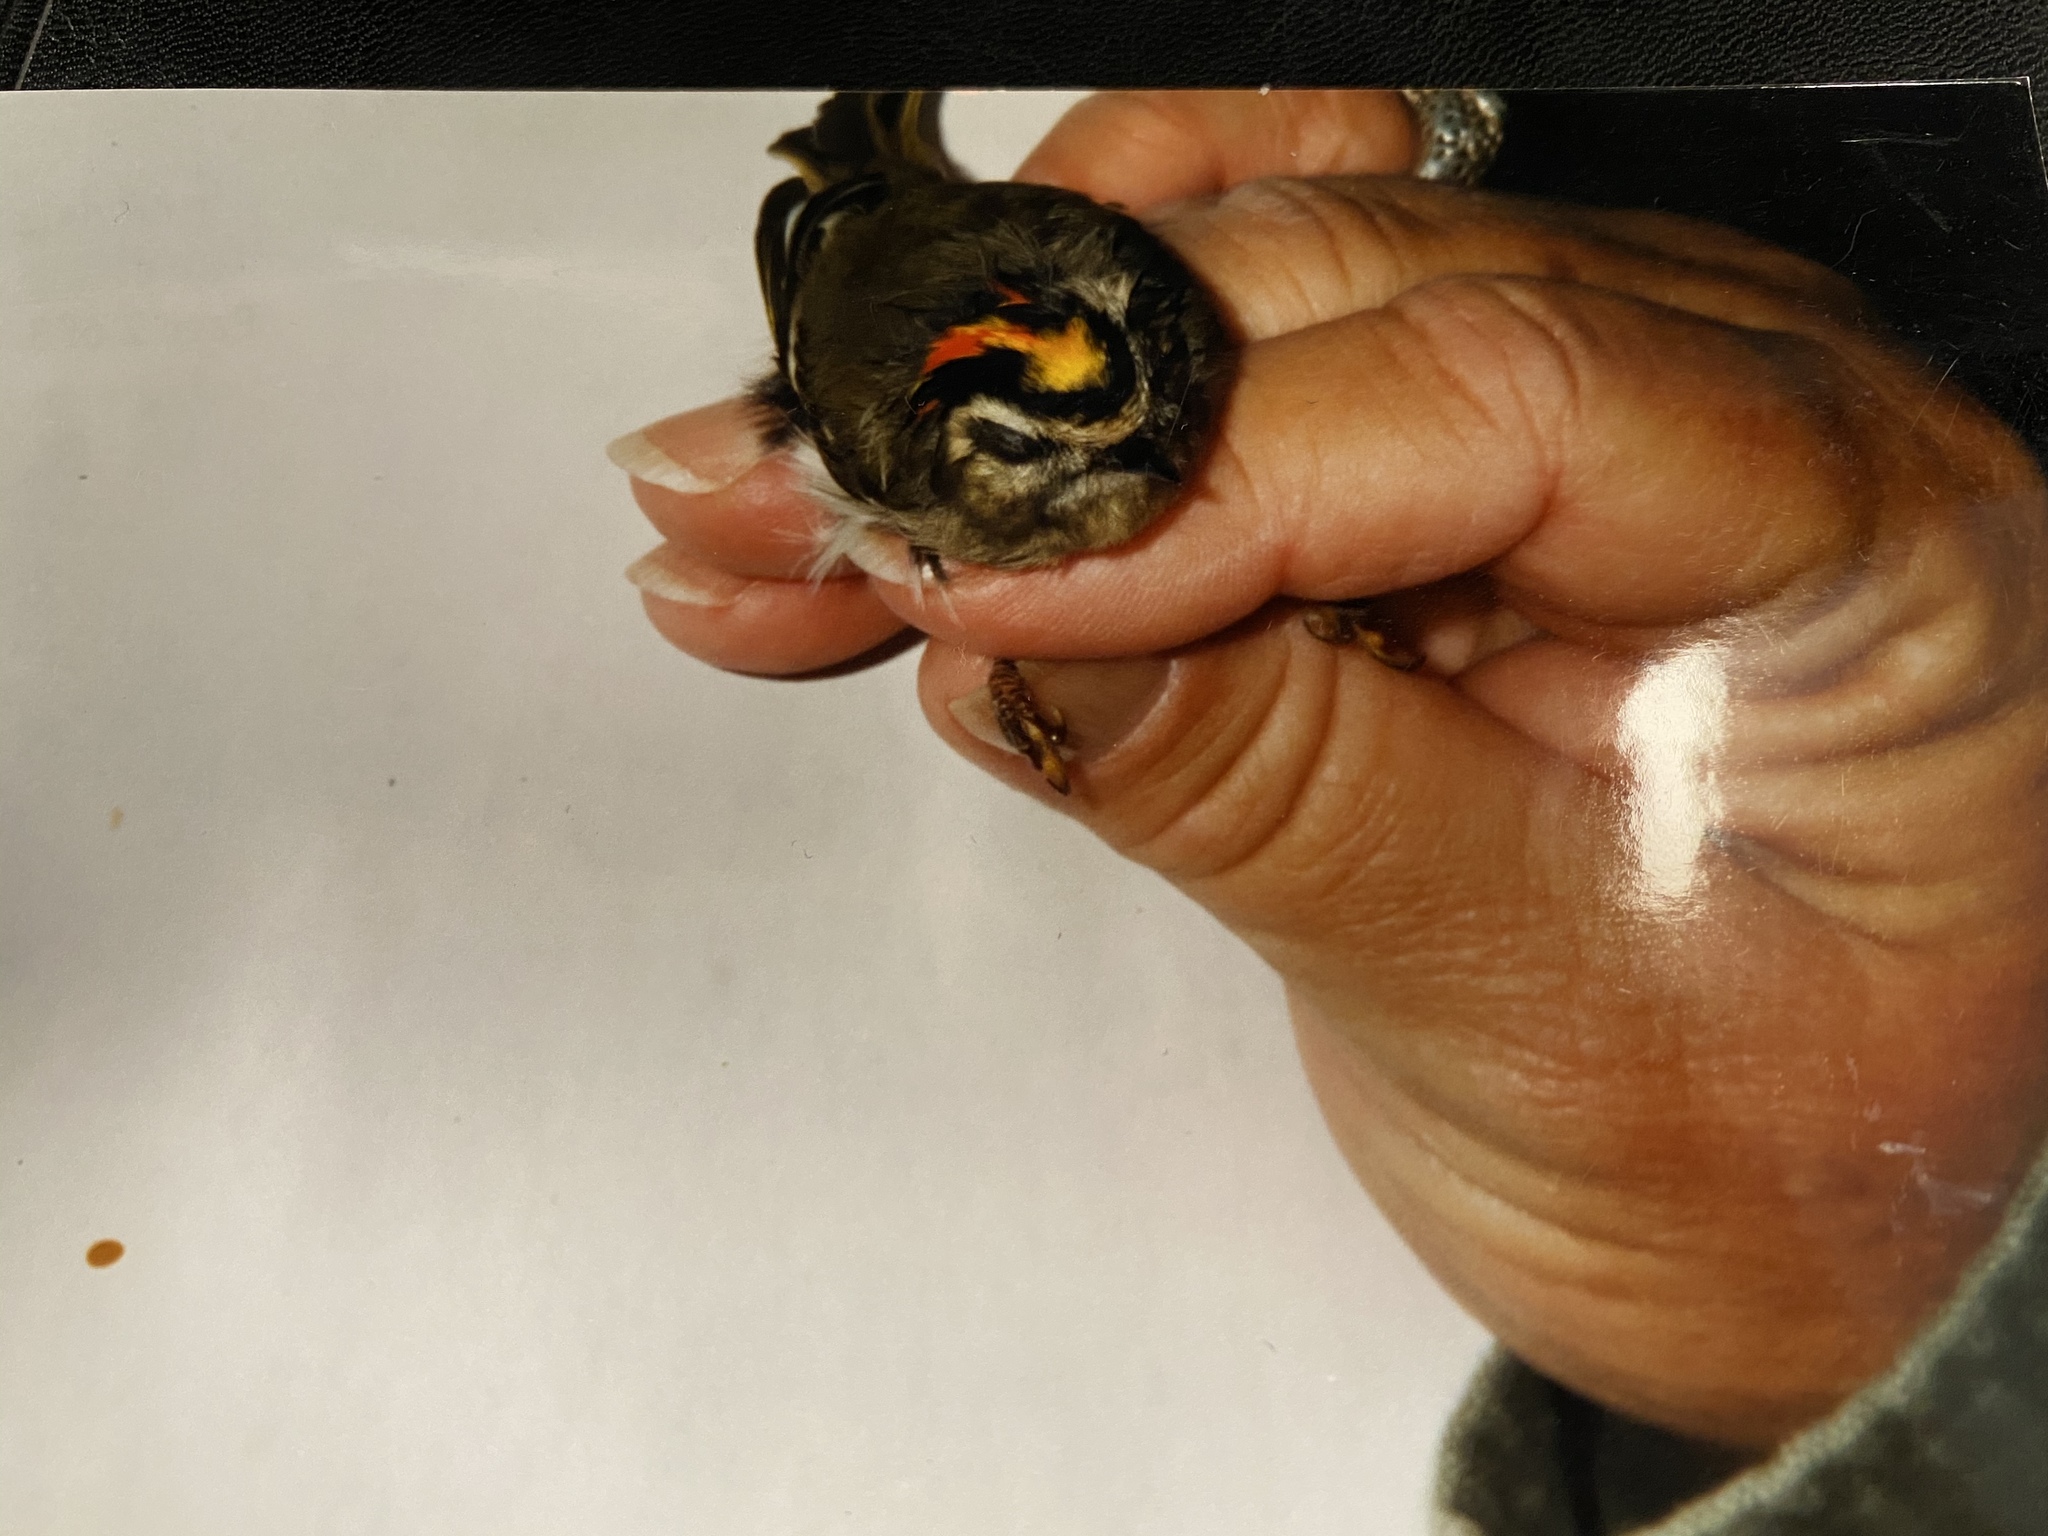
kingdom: Animalia
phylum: Chordata
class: Aves
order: Passeriformes
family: Regulidae
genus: Regulus
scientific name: Regulus satrapa
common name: Golden-crowned kinglet
